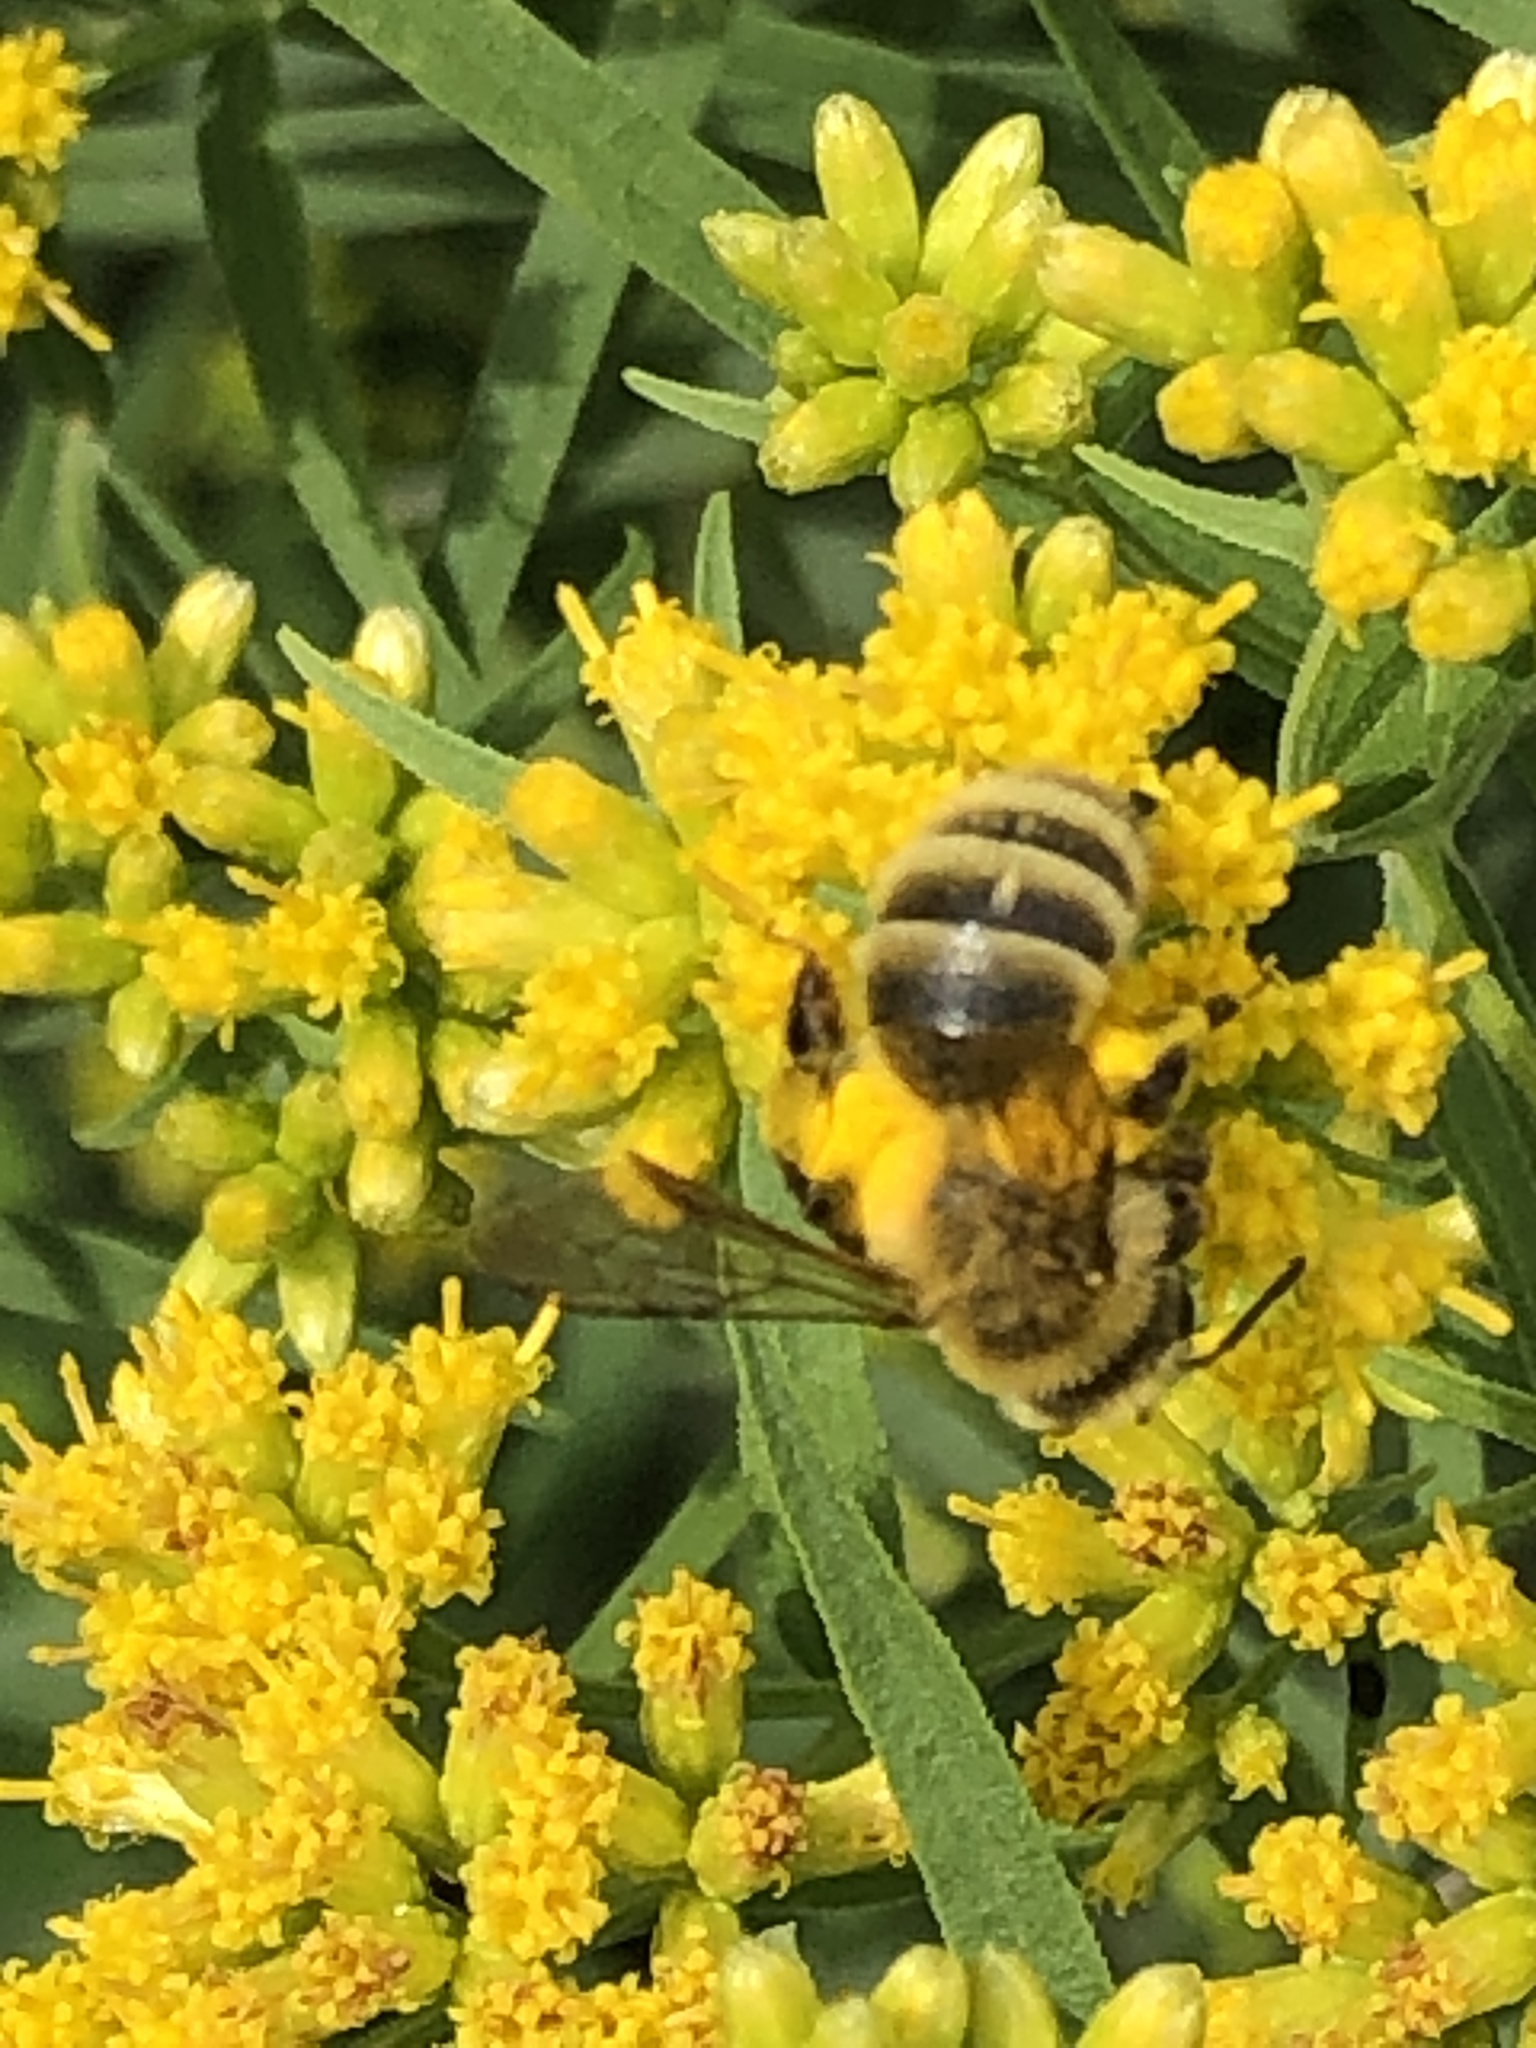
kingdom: Animalia
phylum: Arthropoda
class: Insecta
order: Hymenoptera
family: Andrenidae
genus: Andrena
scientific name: Andrena hirticincta
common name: Hairy-banded mining bee
